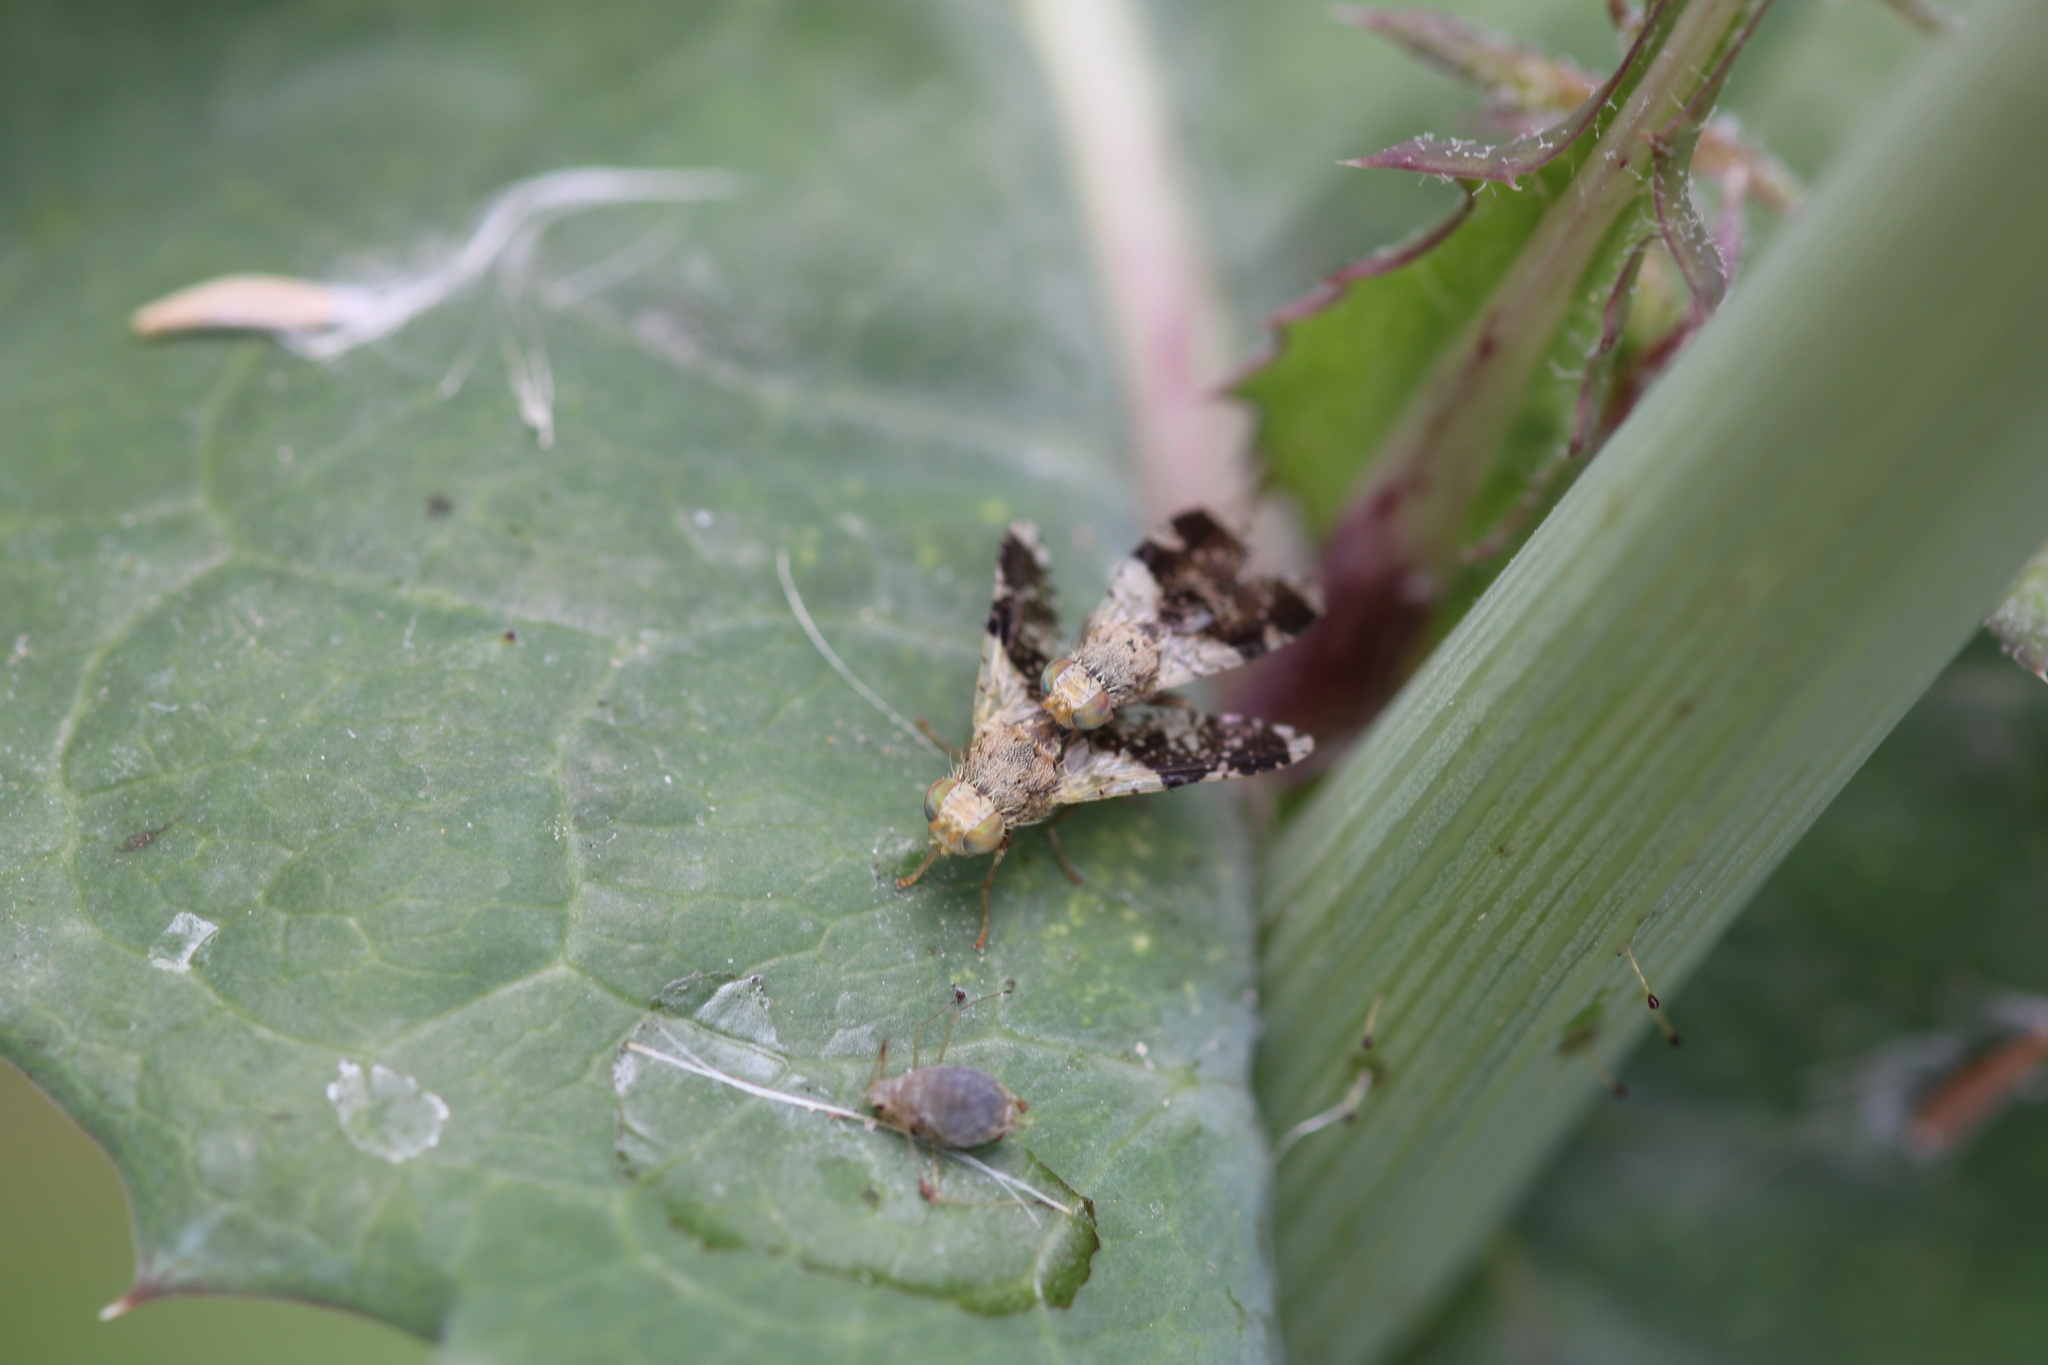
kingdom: Animalia
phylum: Arthropoda
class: Insecta
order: Diptera
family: Tephritidae
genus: Tephritis
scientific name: Tephritis formosa
